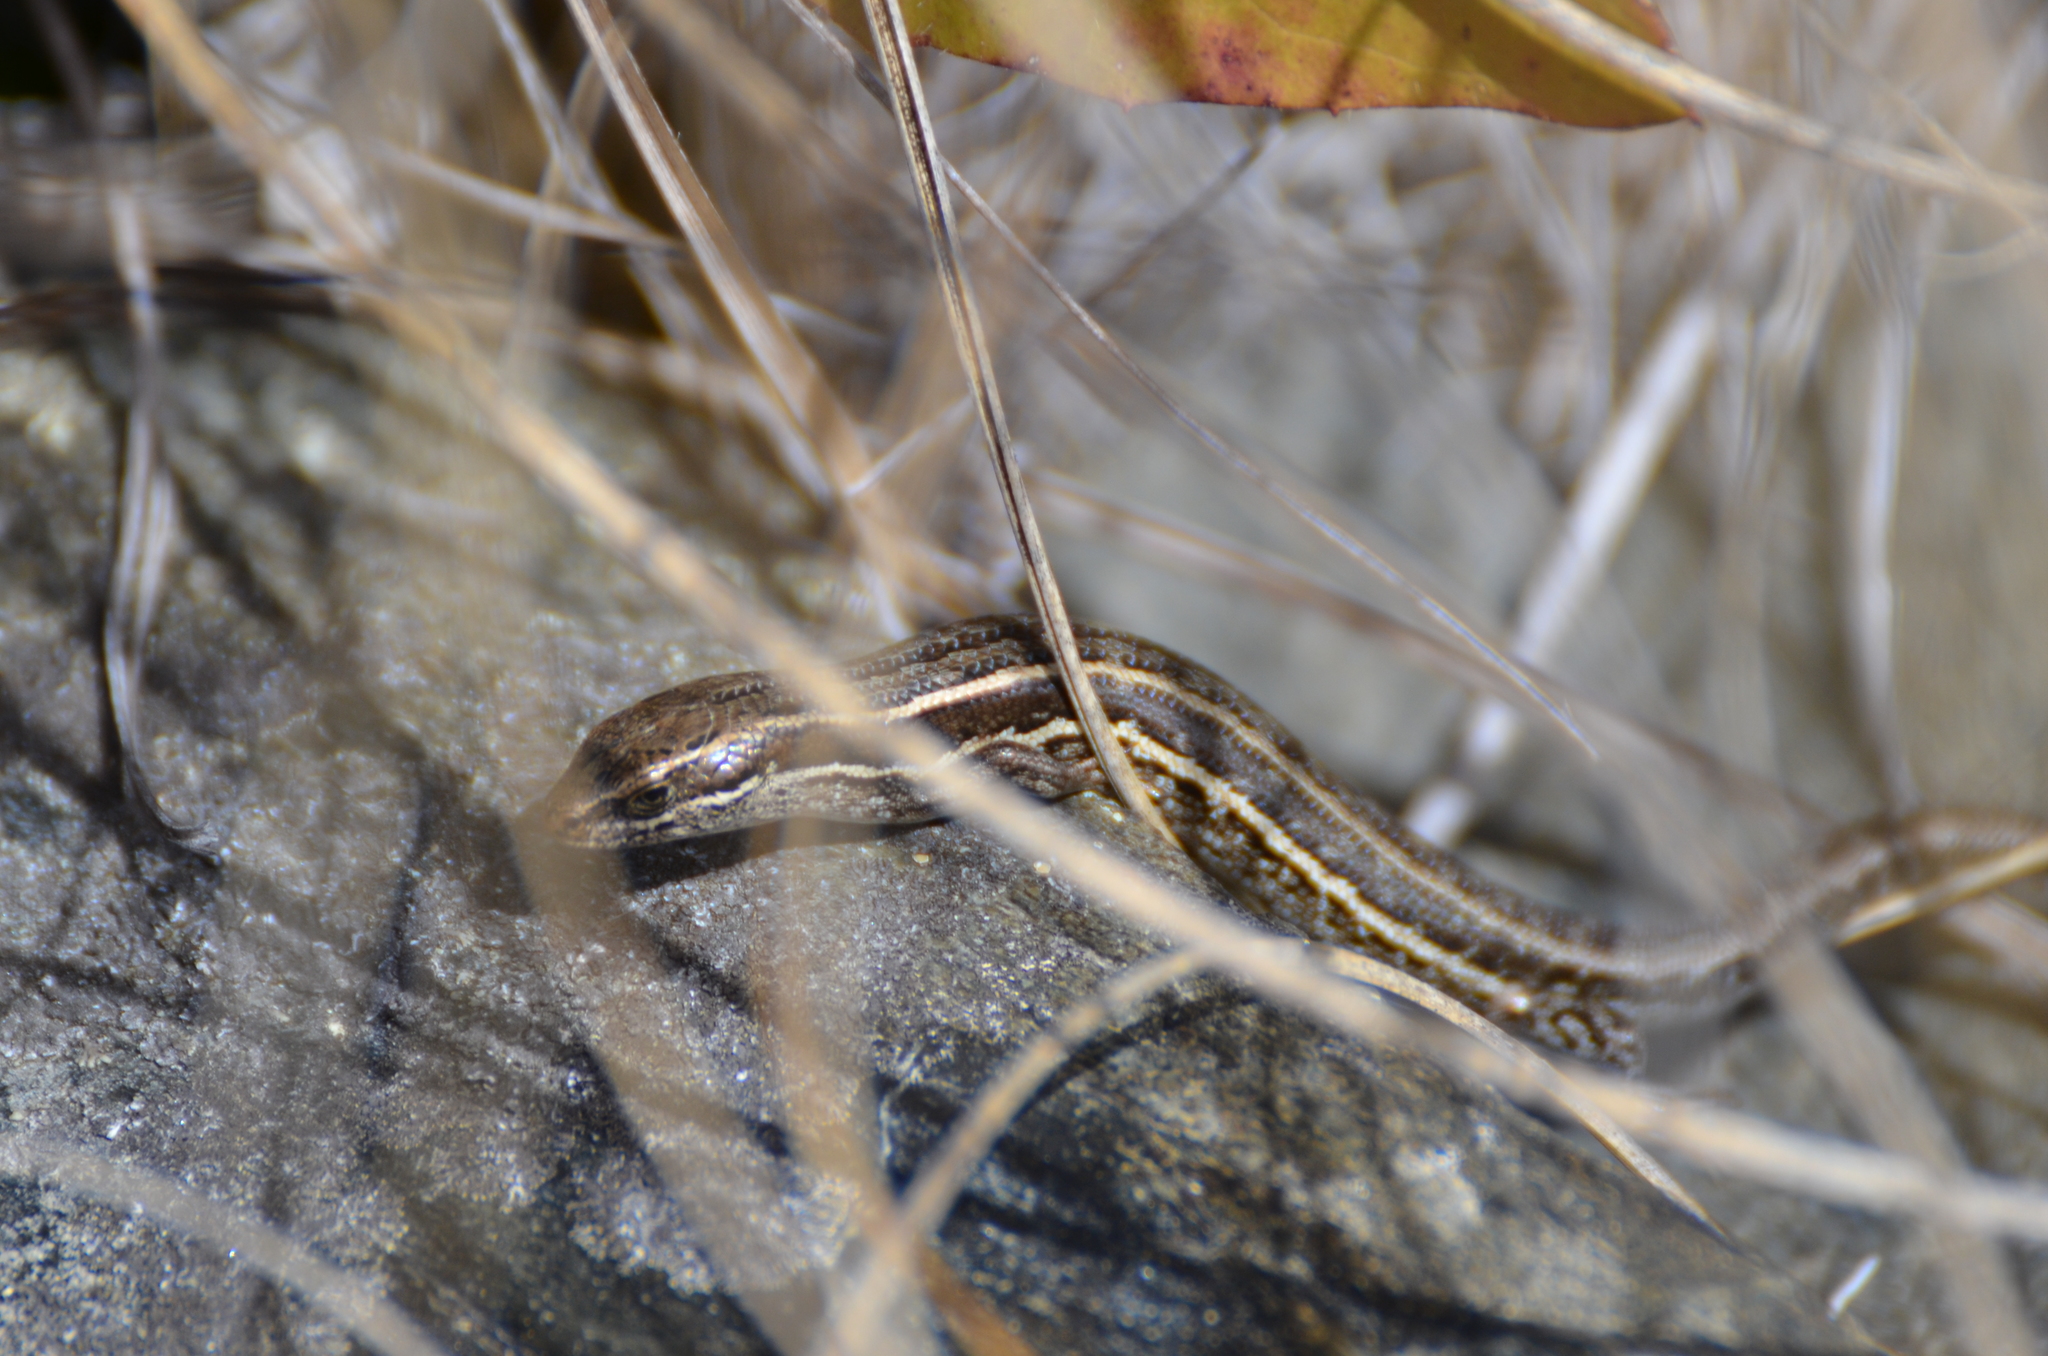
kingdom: Animalia
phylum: Chordata
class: Squamata
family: Scincidae
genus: Oligosoma
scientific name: Oligosoma maccanni
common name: Mccann’s skink
